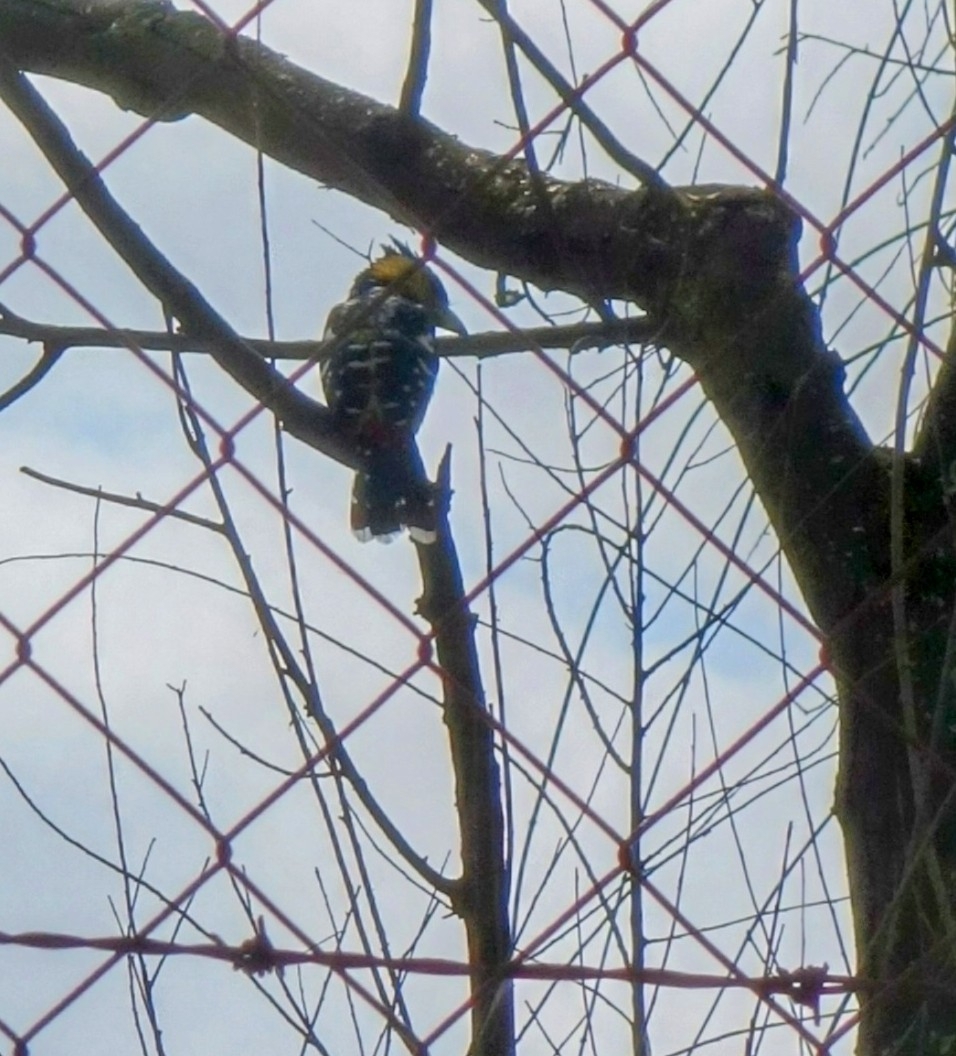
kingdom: Animalia
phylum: Chordata
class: Aves
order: Piciformes
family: Lybiidae
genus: Trachyphonus
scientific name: Trachyphonus vaillantii
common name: Crested barbet
